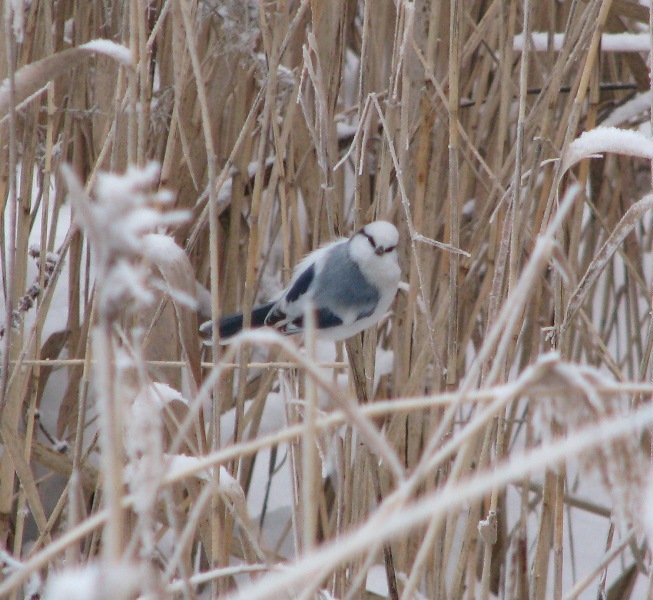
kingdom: Animalia
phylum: Chordata
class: Aves
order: Passeriformes
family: Paridae
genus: Cyanistes
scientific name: Cyanistes cyanus
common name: Azure tit
